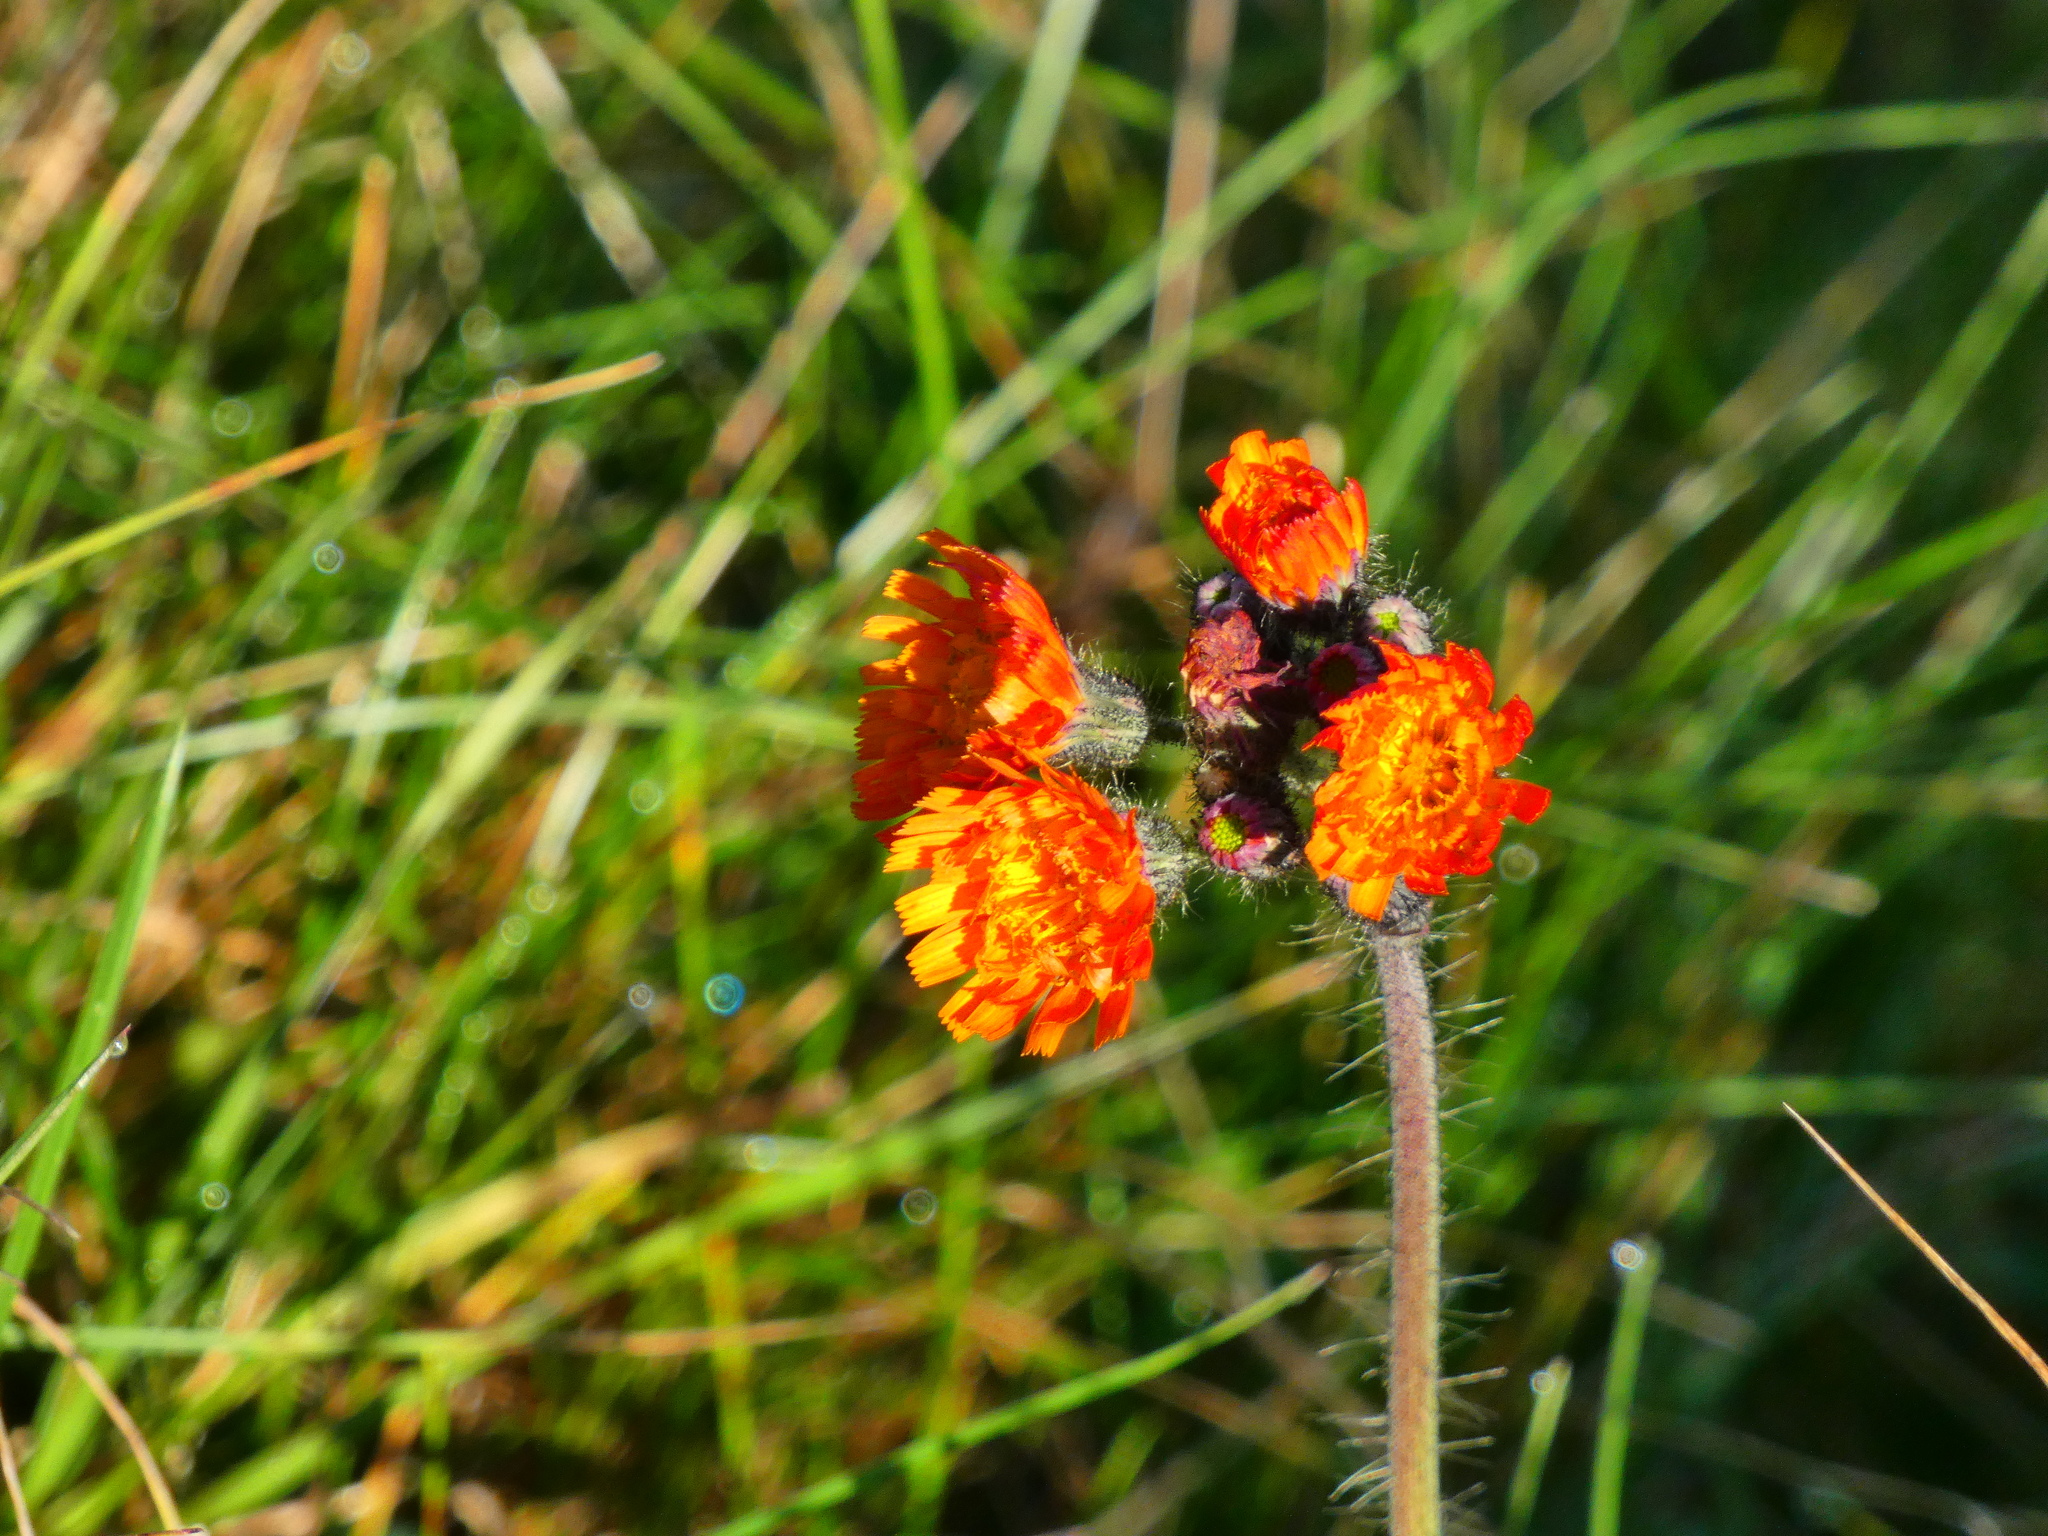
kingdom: Plantae
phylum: Tracheophyta
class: Magnoliopsida
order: Asterales
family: Asteraceae
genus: Pilosella
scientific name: Pilosella aurantiaca
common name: Fox-and-cubs
